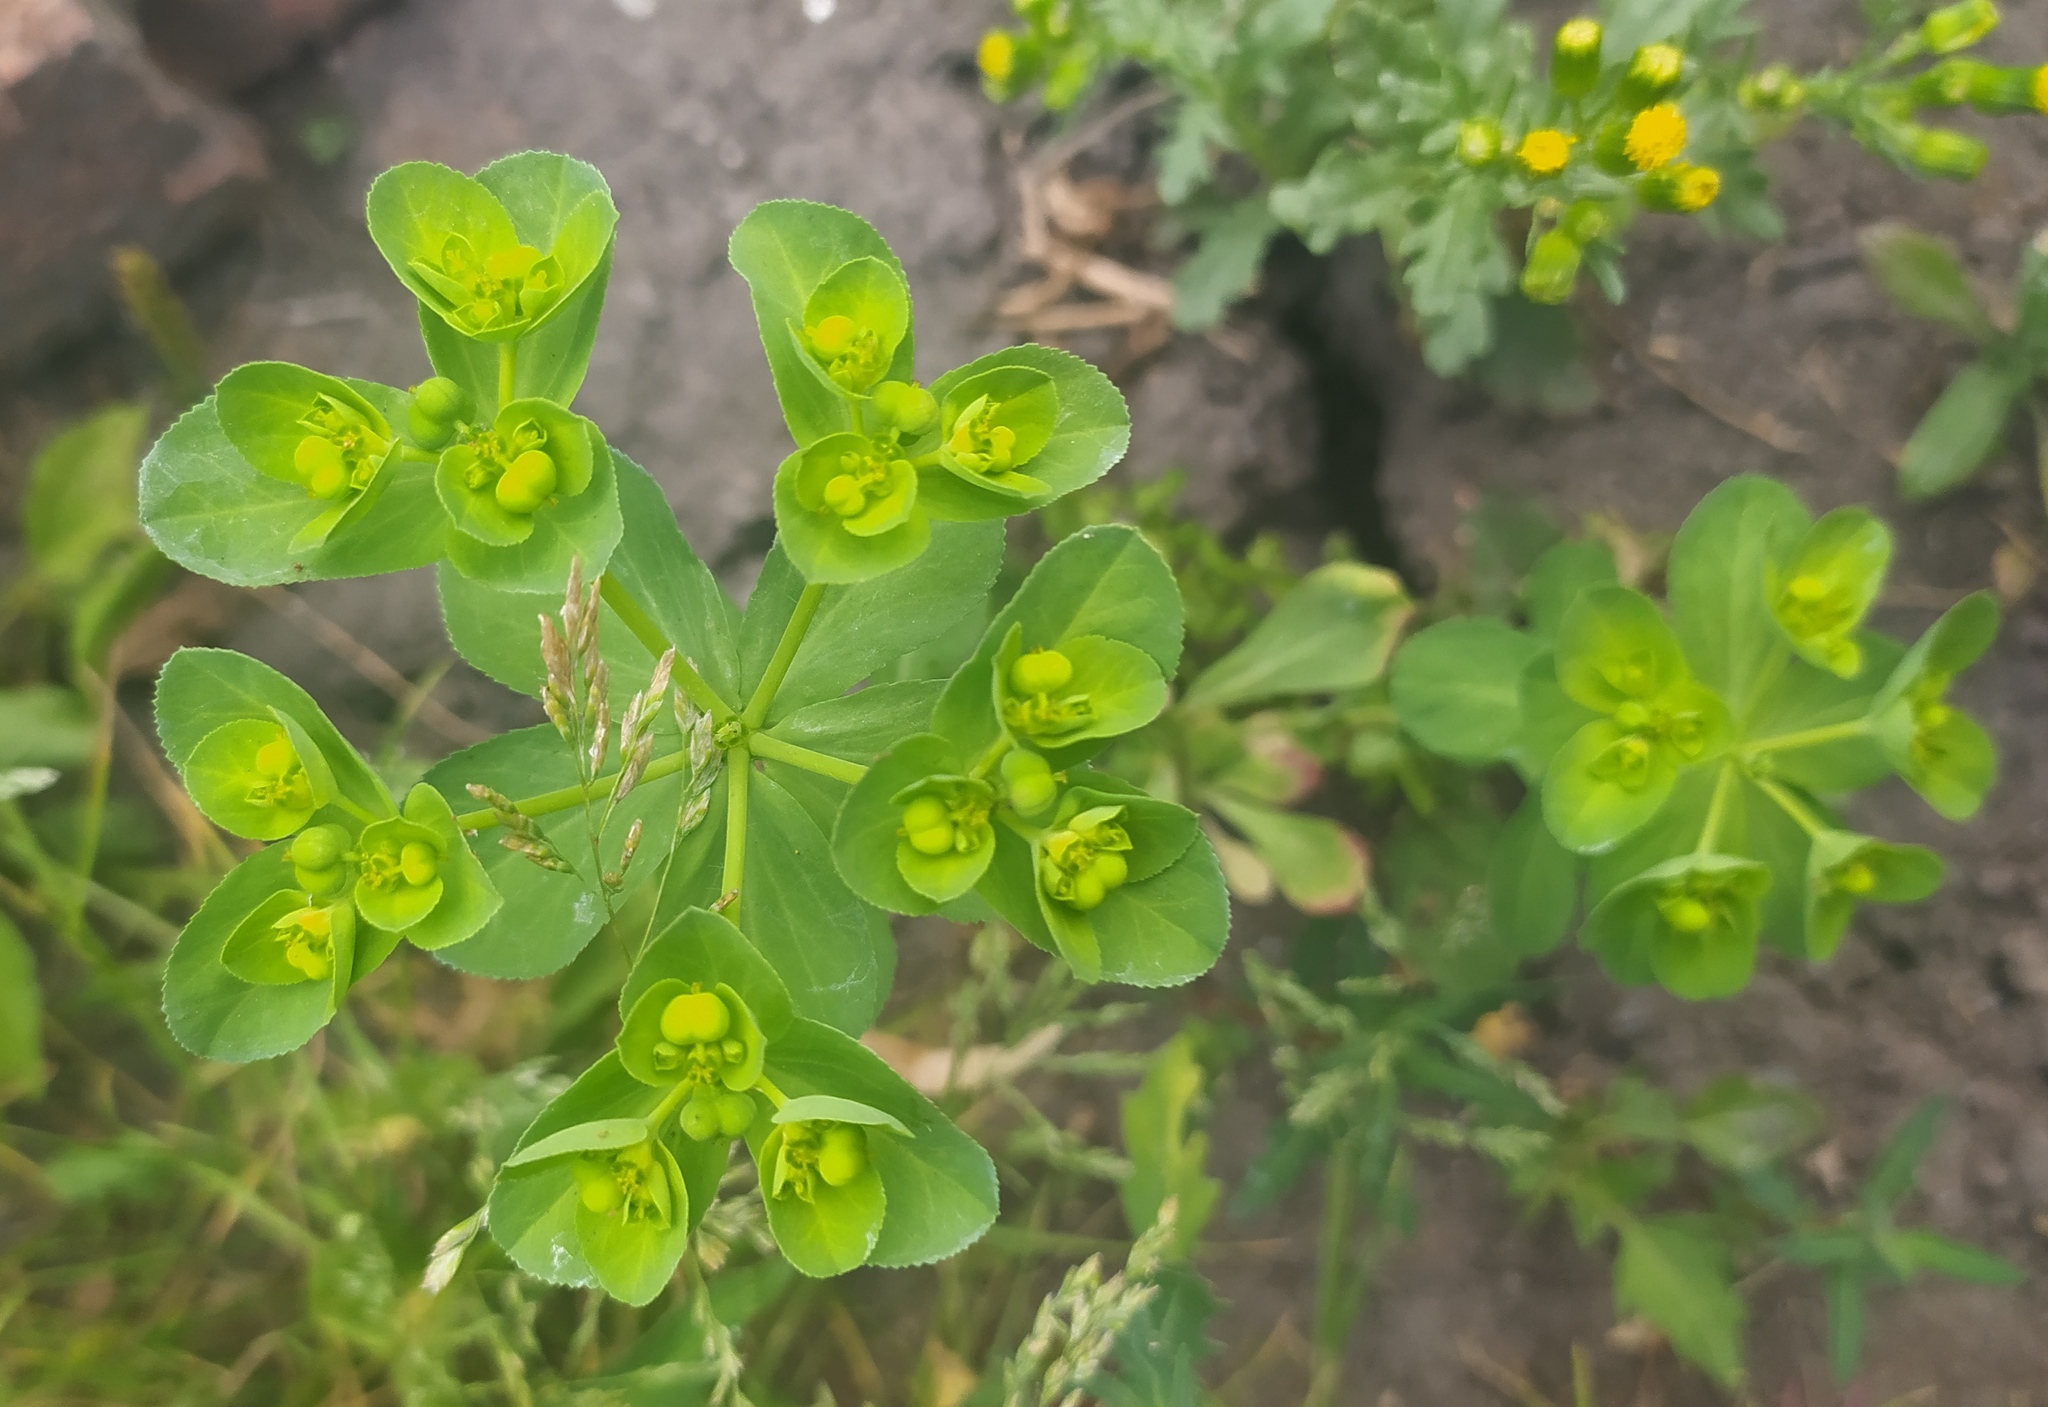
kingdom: Plantae
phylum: Tracheophyta
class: Magnoliopsida
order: Malpighiales
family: Euphorbiaceae
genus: Euphorbia
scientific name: Euphorbia helioscopia
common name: Sun spurge
